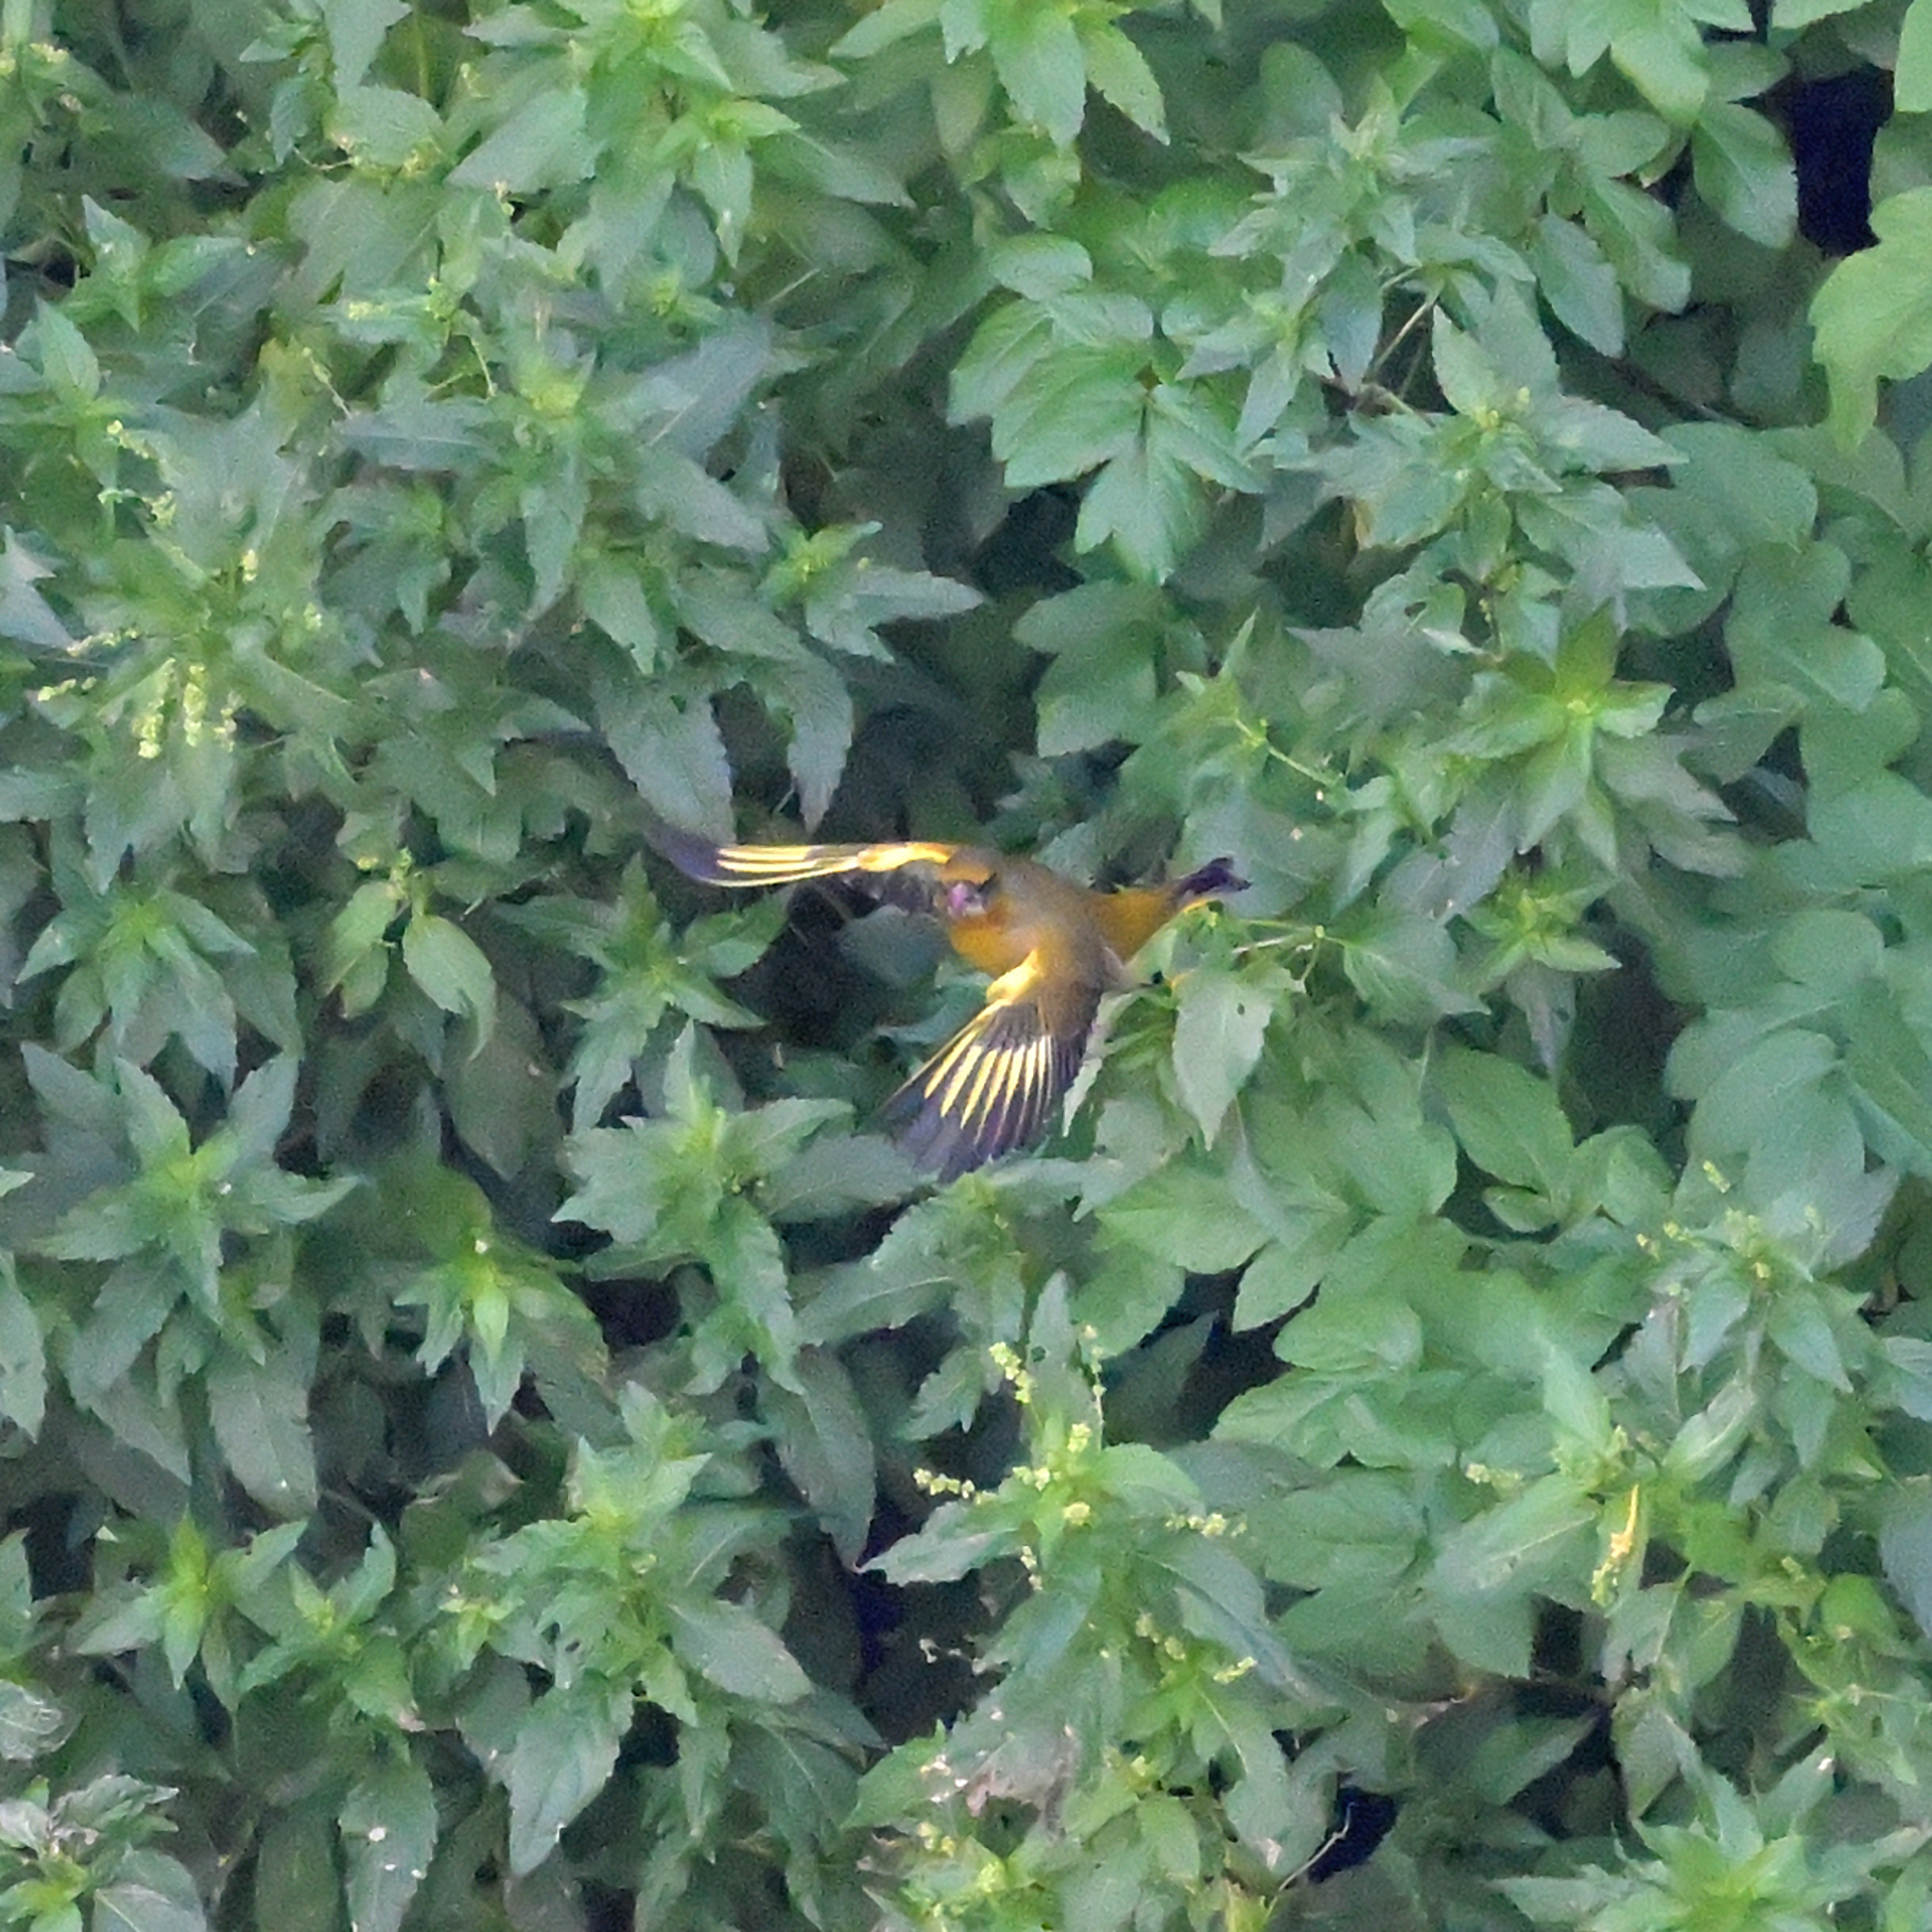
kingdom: Plantae
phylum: Tracheophyta
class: Liliopsida
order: Poales
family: Poaceae
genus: Chloris
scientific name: Chloris chloris
